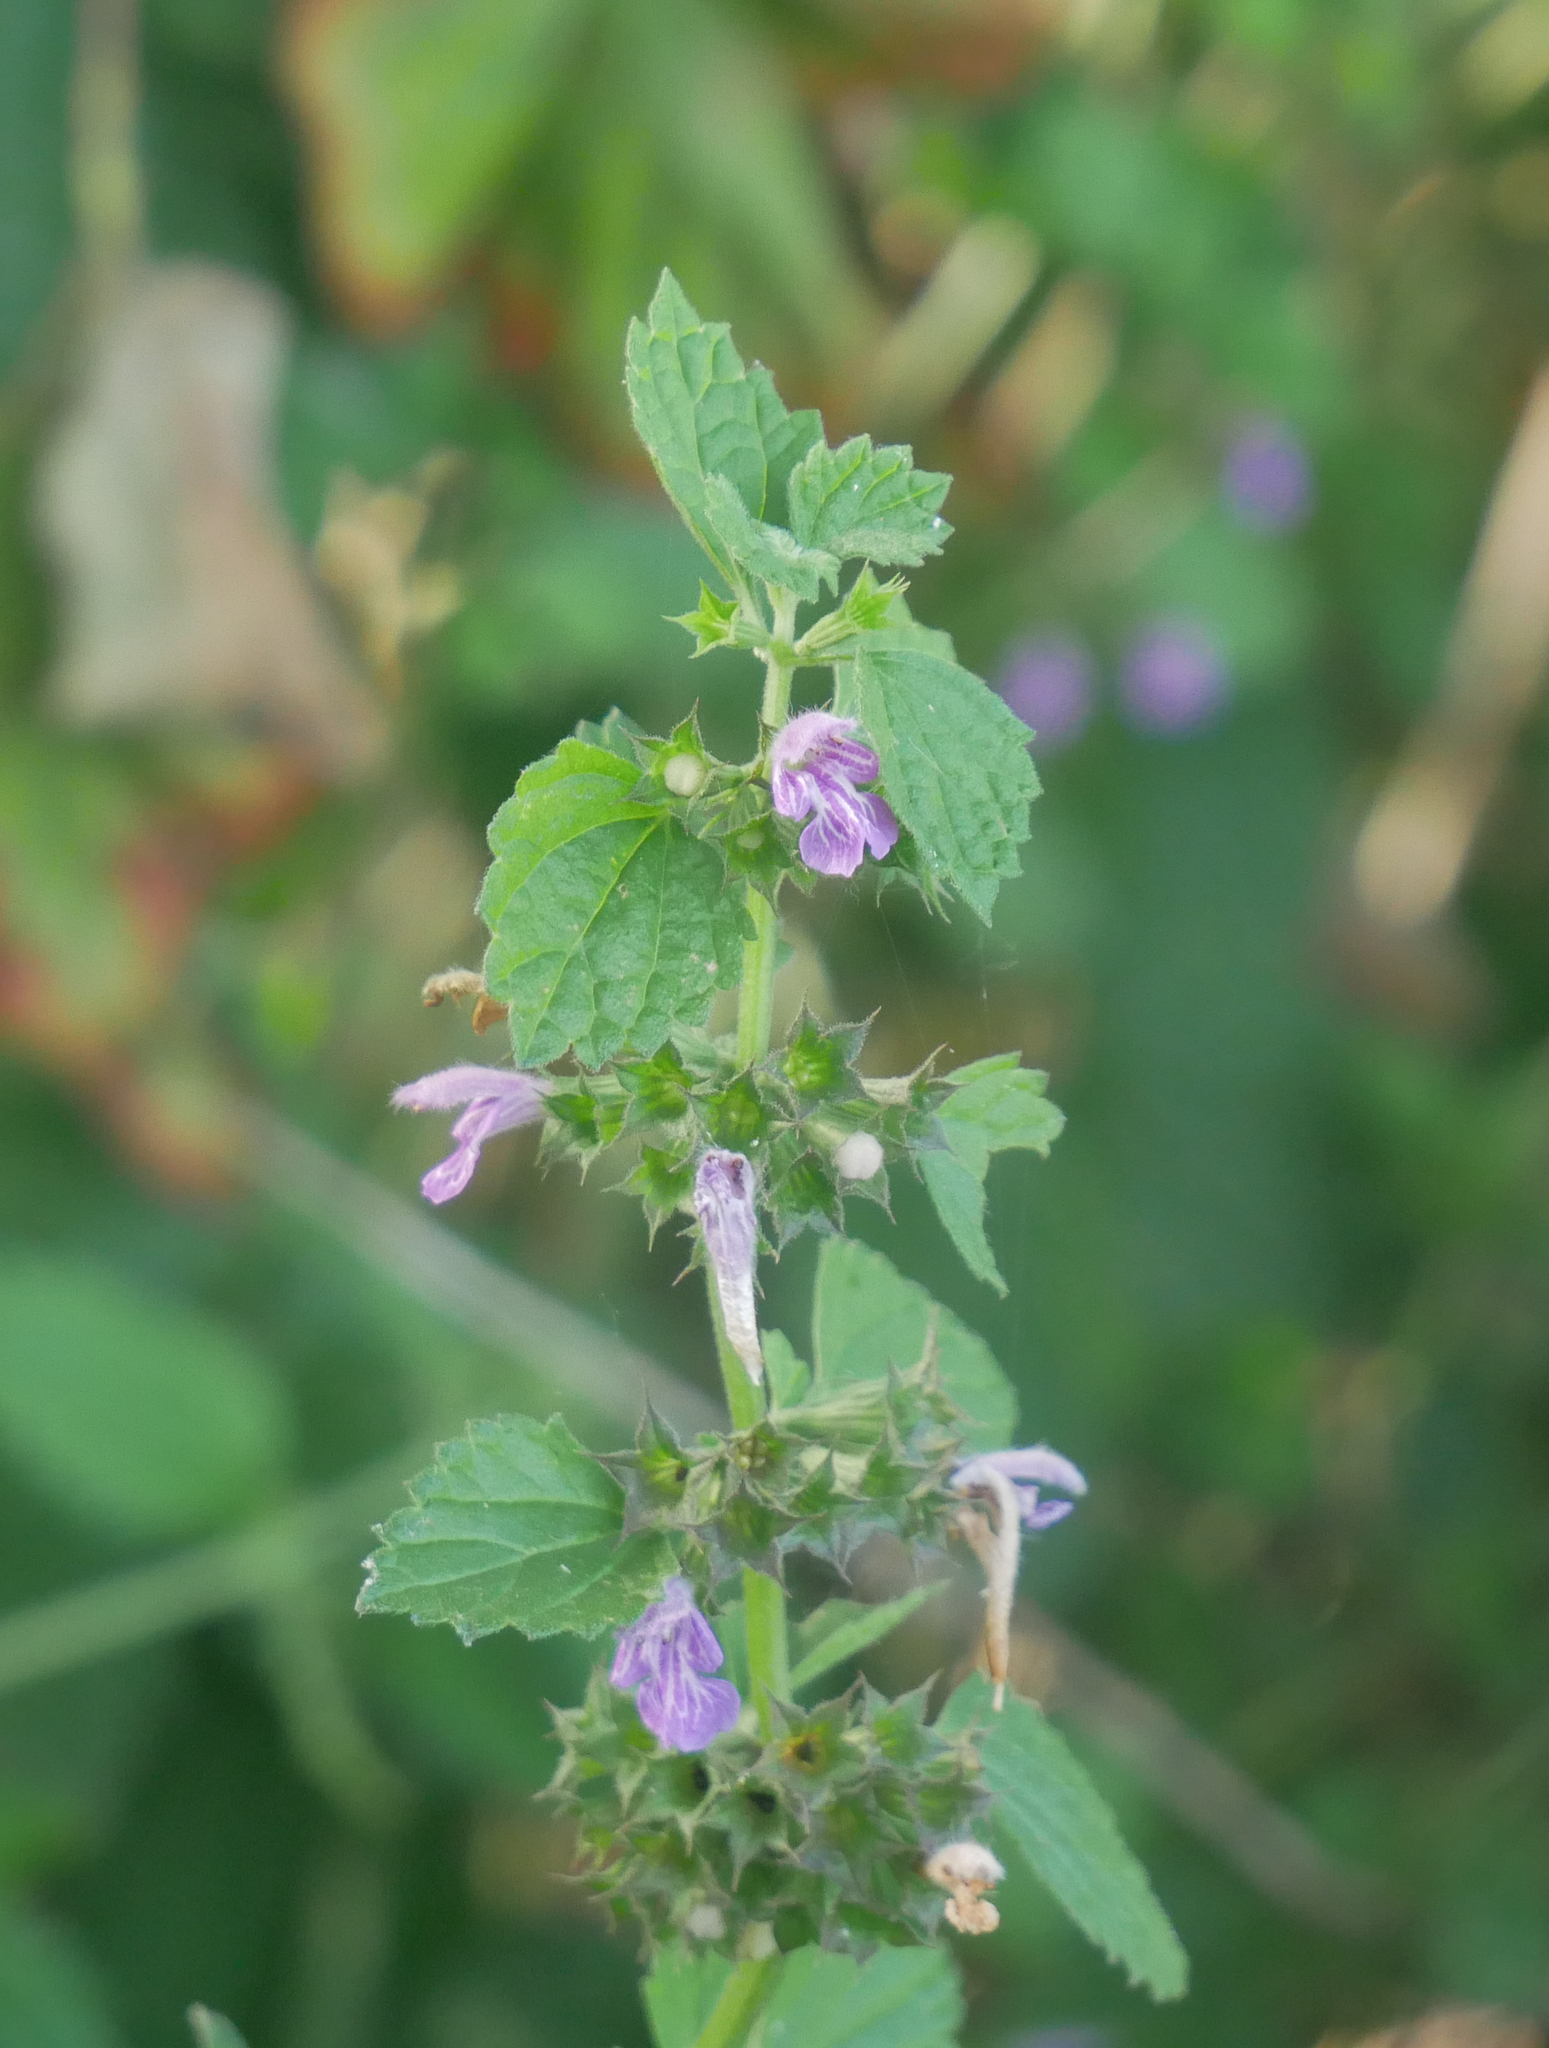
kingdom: Plantae
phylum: Tracheophyta
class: Magnoliopsida
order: Lamiales
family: Lamiaceae
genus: Ballota
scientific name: Ballota nigra
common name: Black horehound
